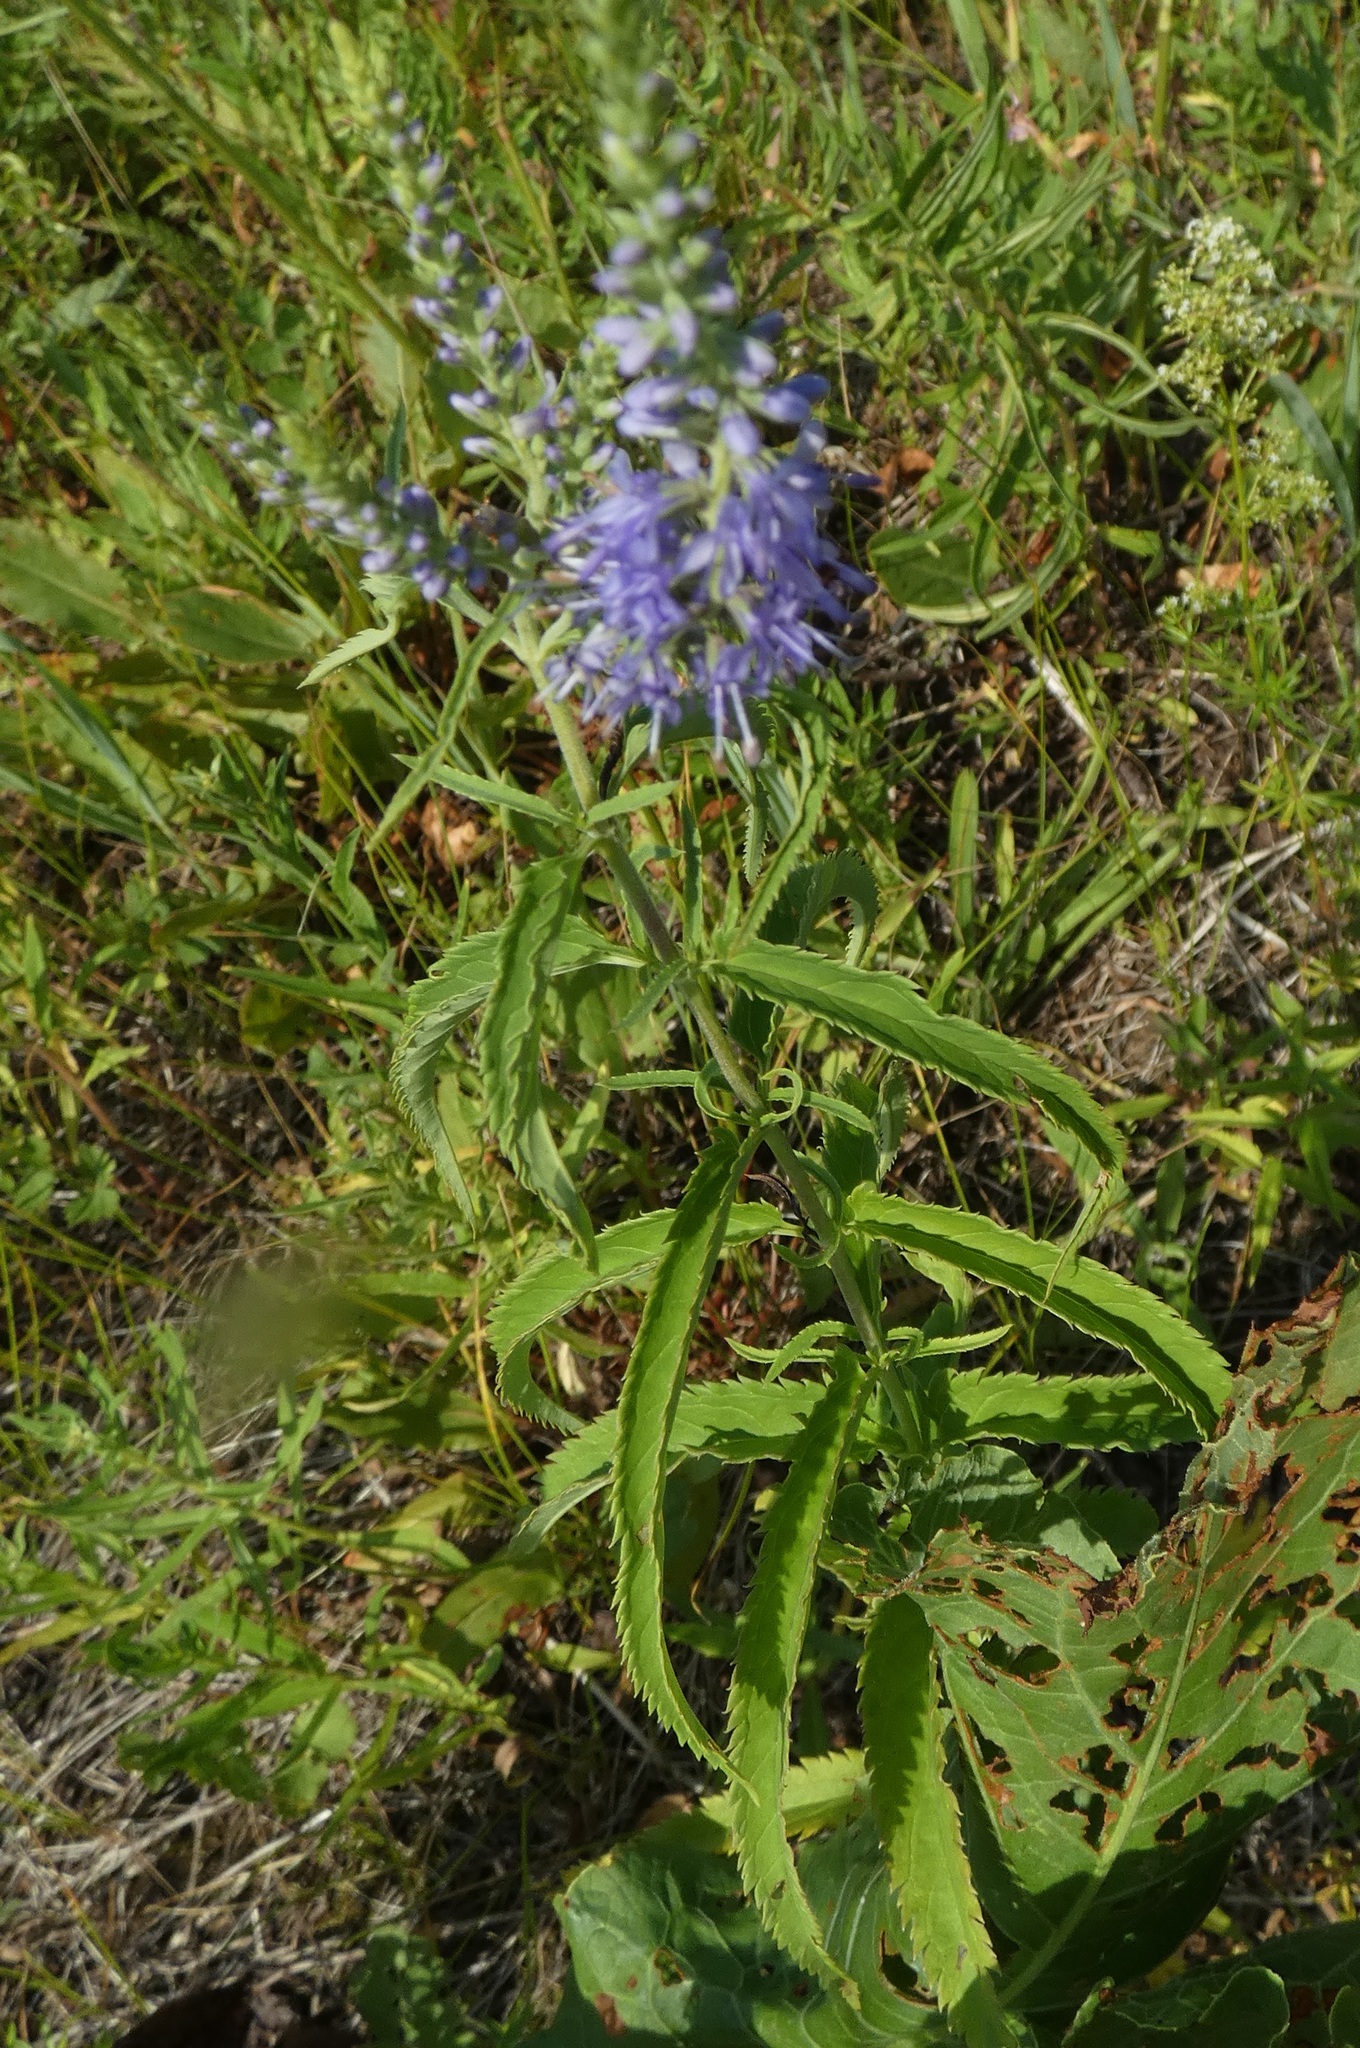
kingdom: Plantae
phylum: Tracheophyta
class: Magnoliopsida
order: Lamiales
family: Plantaginaceae
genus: Veronica
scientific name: Veronica longifolia
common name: Garden speedwell
